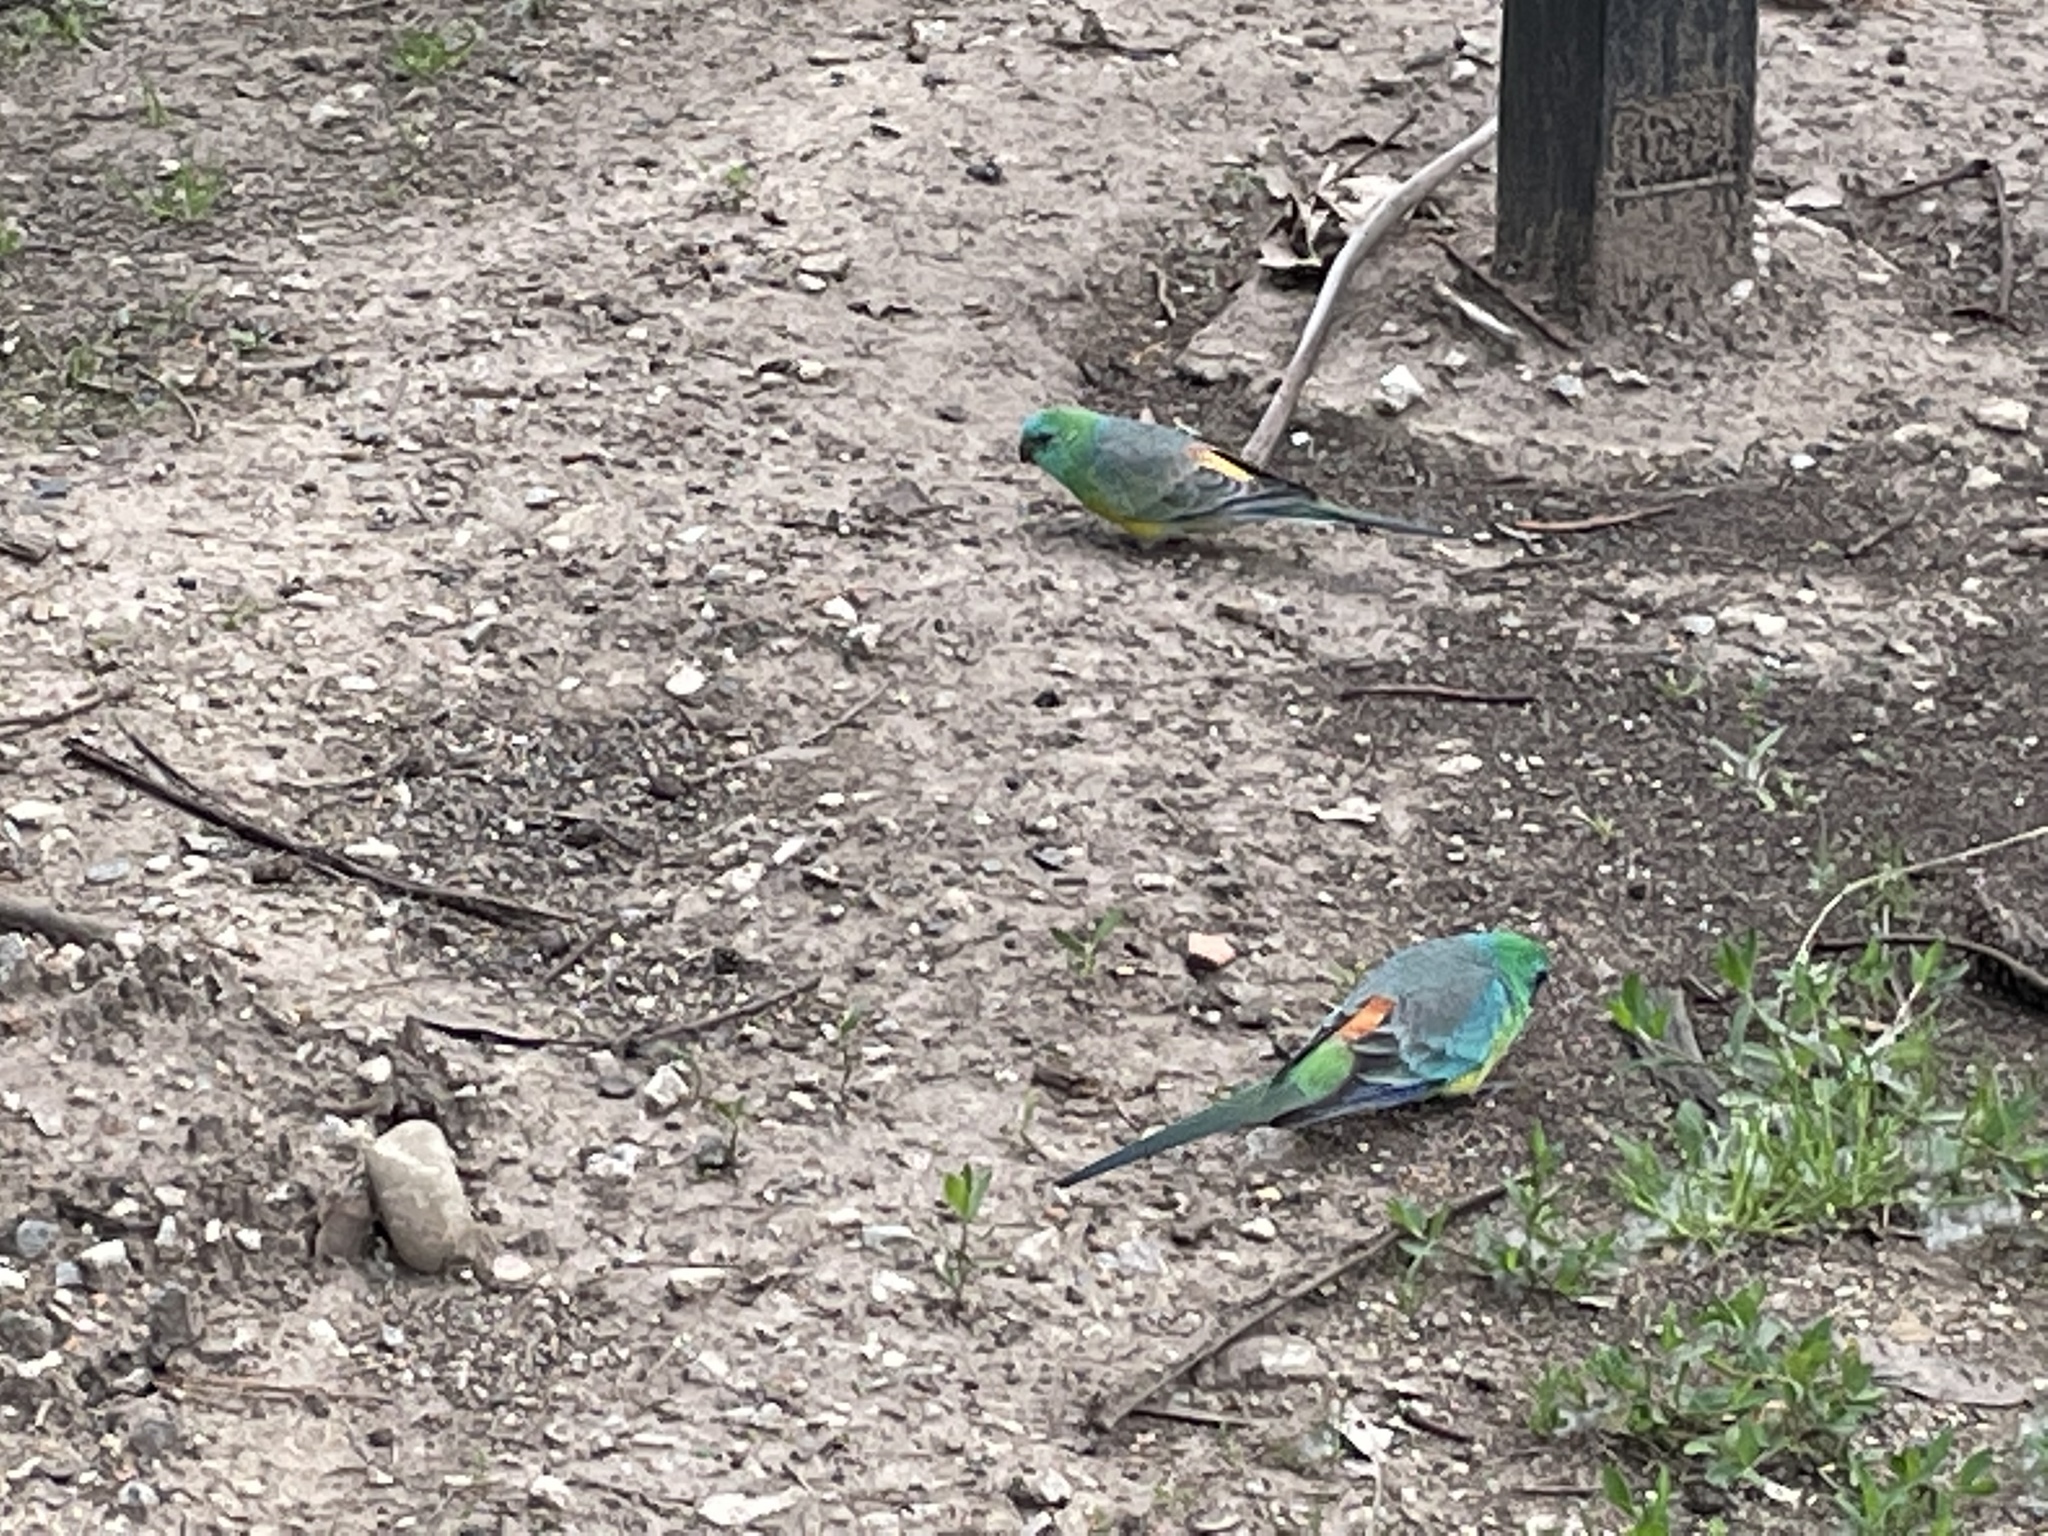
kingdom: Animalia
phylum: Chordata
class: Aves
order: Psittaciformes
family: Psittacidae
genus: Psephotus
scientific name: Psephotus haematonotus
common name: Red-rumped parrot
